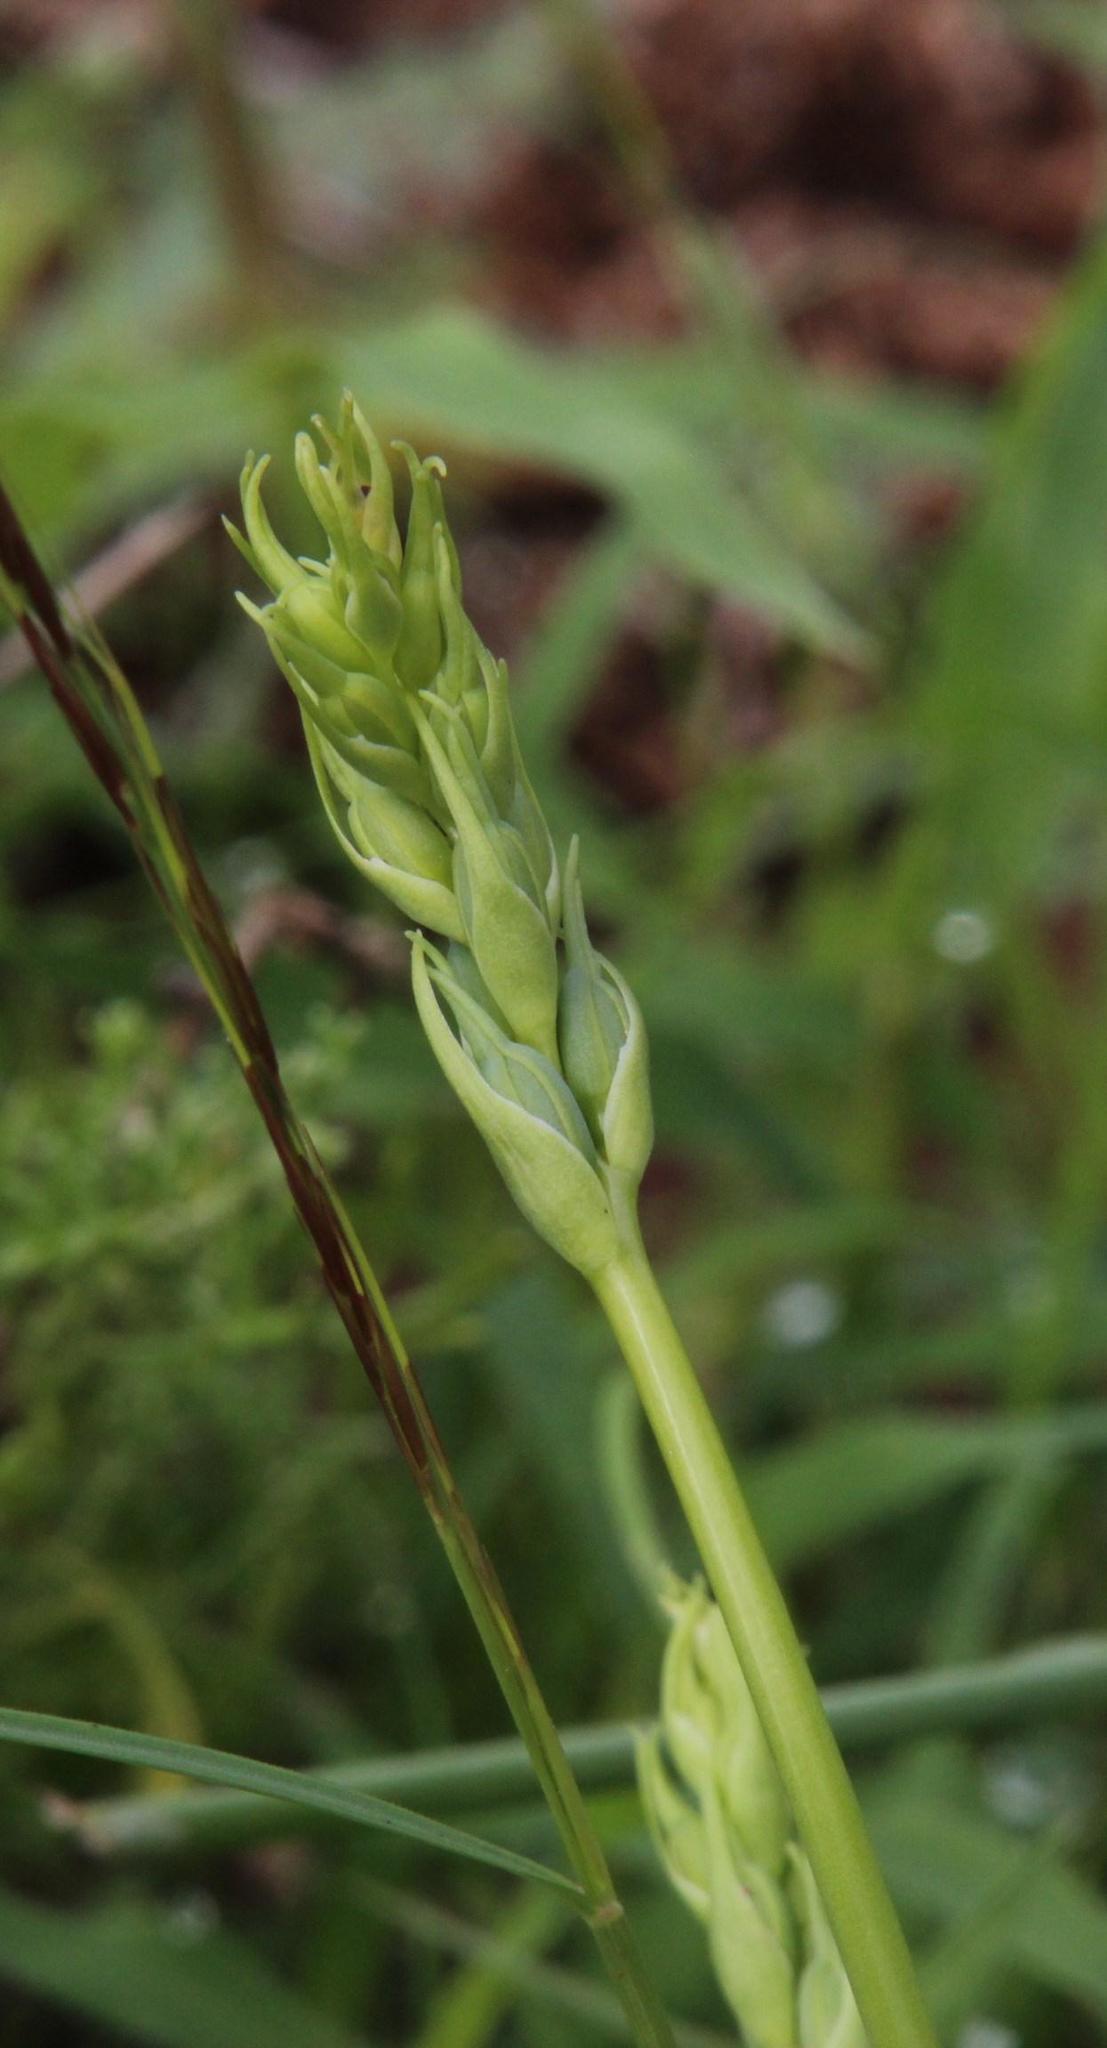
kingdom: Plantae
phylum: Tracheophyta
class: Liliopsida
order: Asparagales
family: Asparagaceae
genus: Albuca
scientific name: Albuca virens
